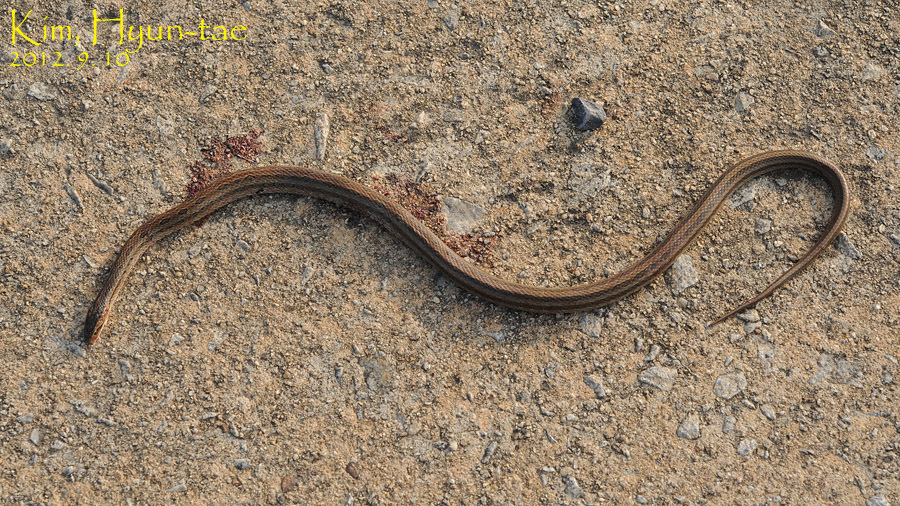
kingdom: Animalia
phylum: Chordata
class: Squamata
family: Colubridae
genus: Oocatochus
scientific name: Oocatochus rufodorsatus
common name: Frog-eating rat snake
